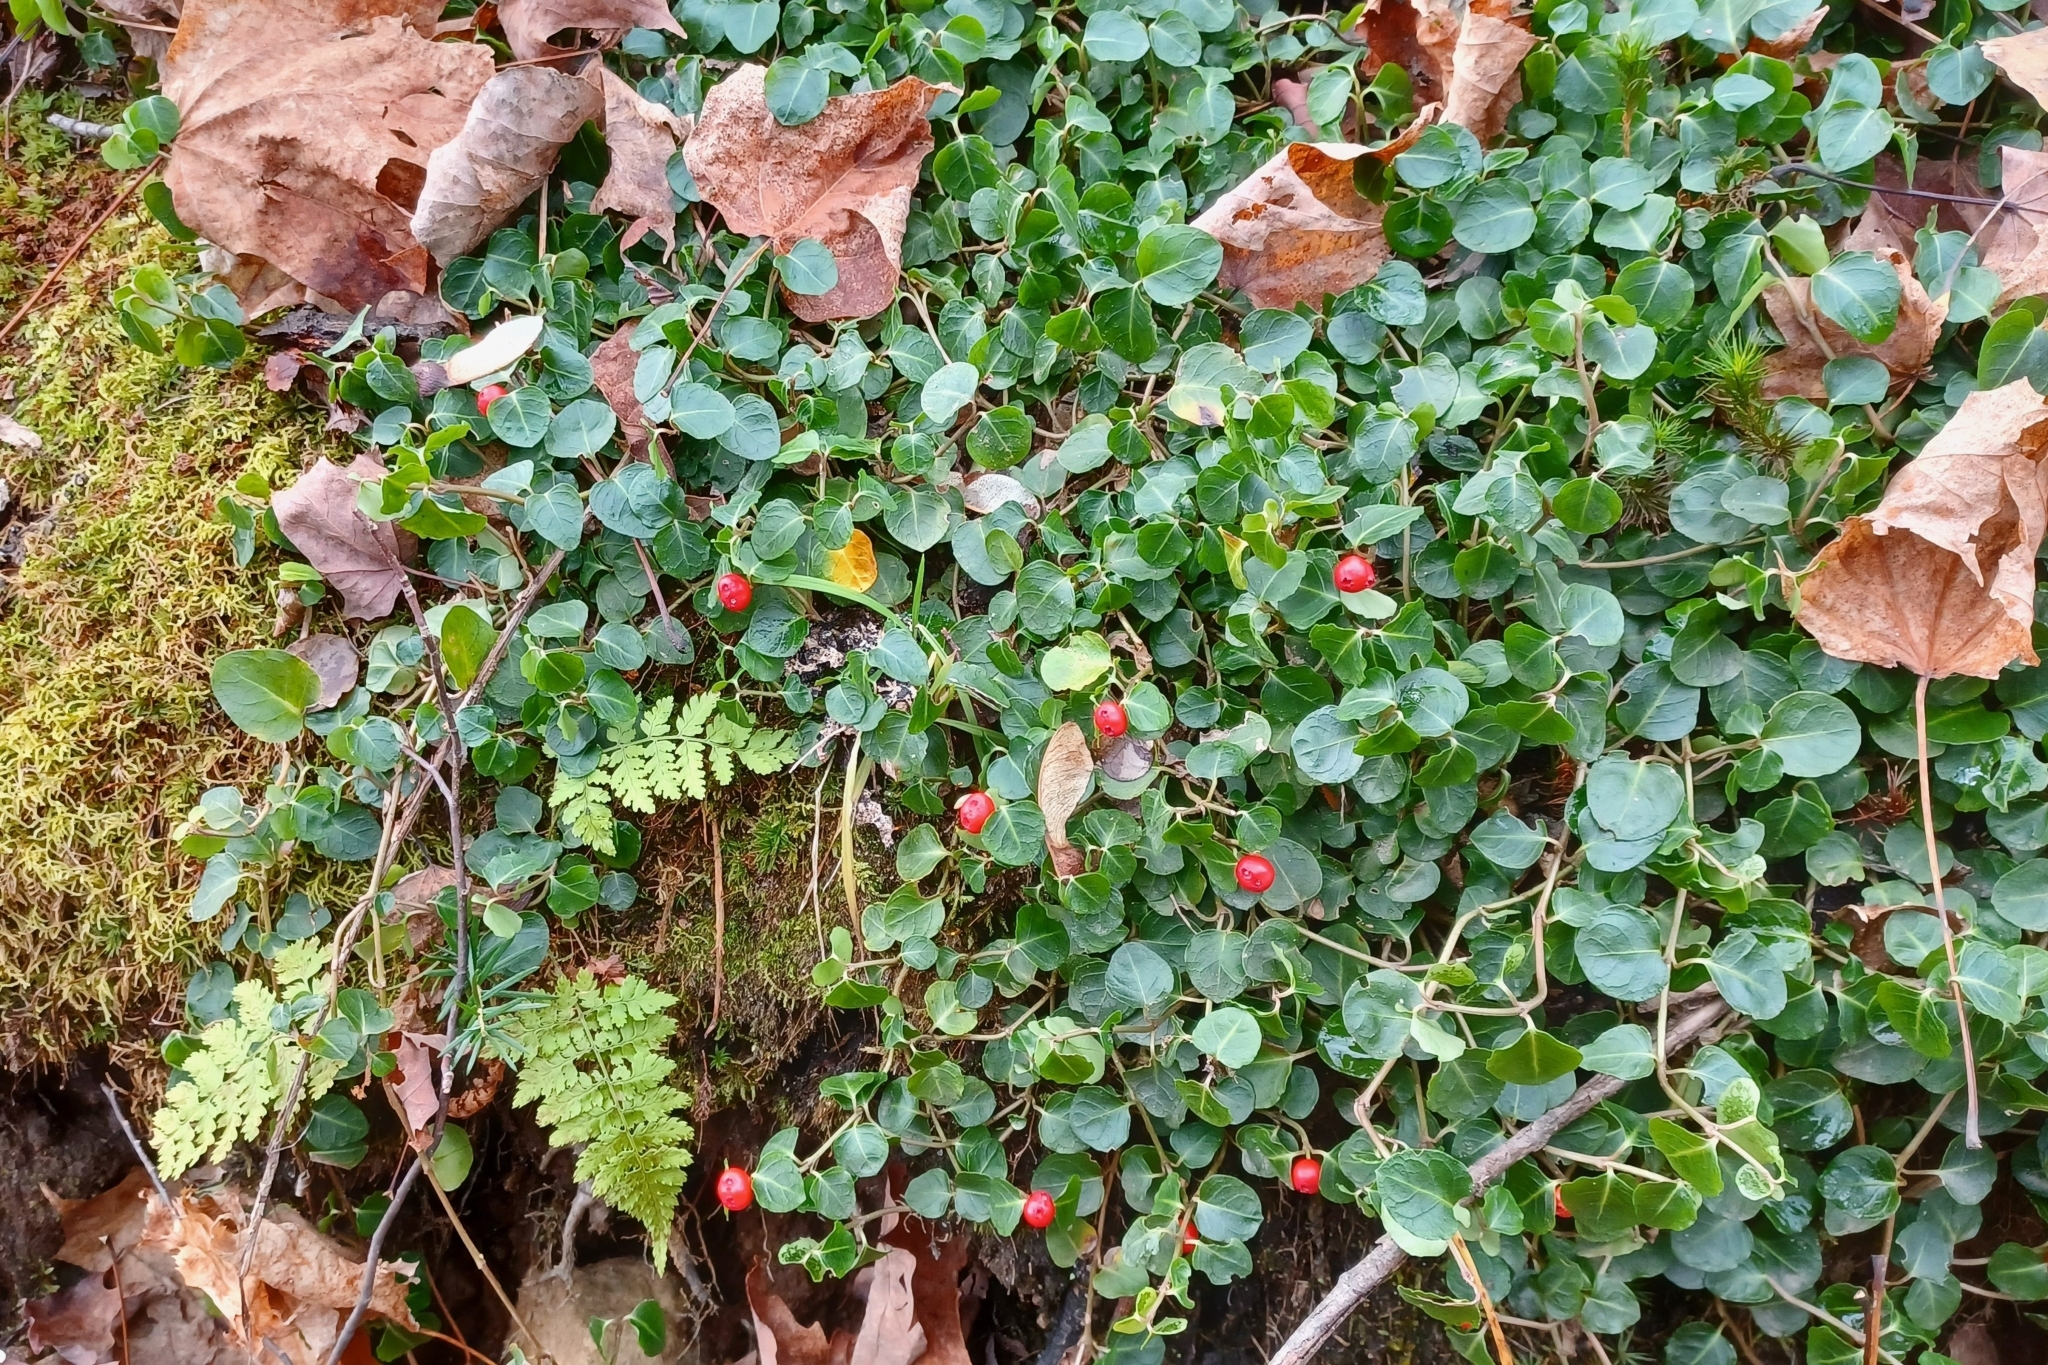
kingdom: Plantae
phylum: Tracheophyta
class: Magnoliopsida
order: Gentianales
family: Rubiaceae
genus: Mitchella
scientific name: Mitchella repens
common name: Partridge-berry
